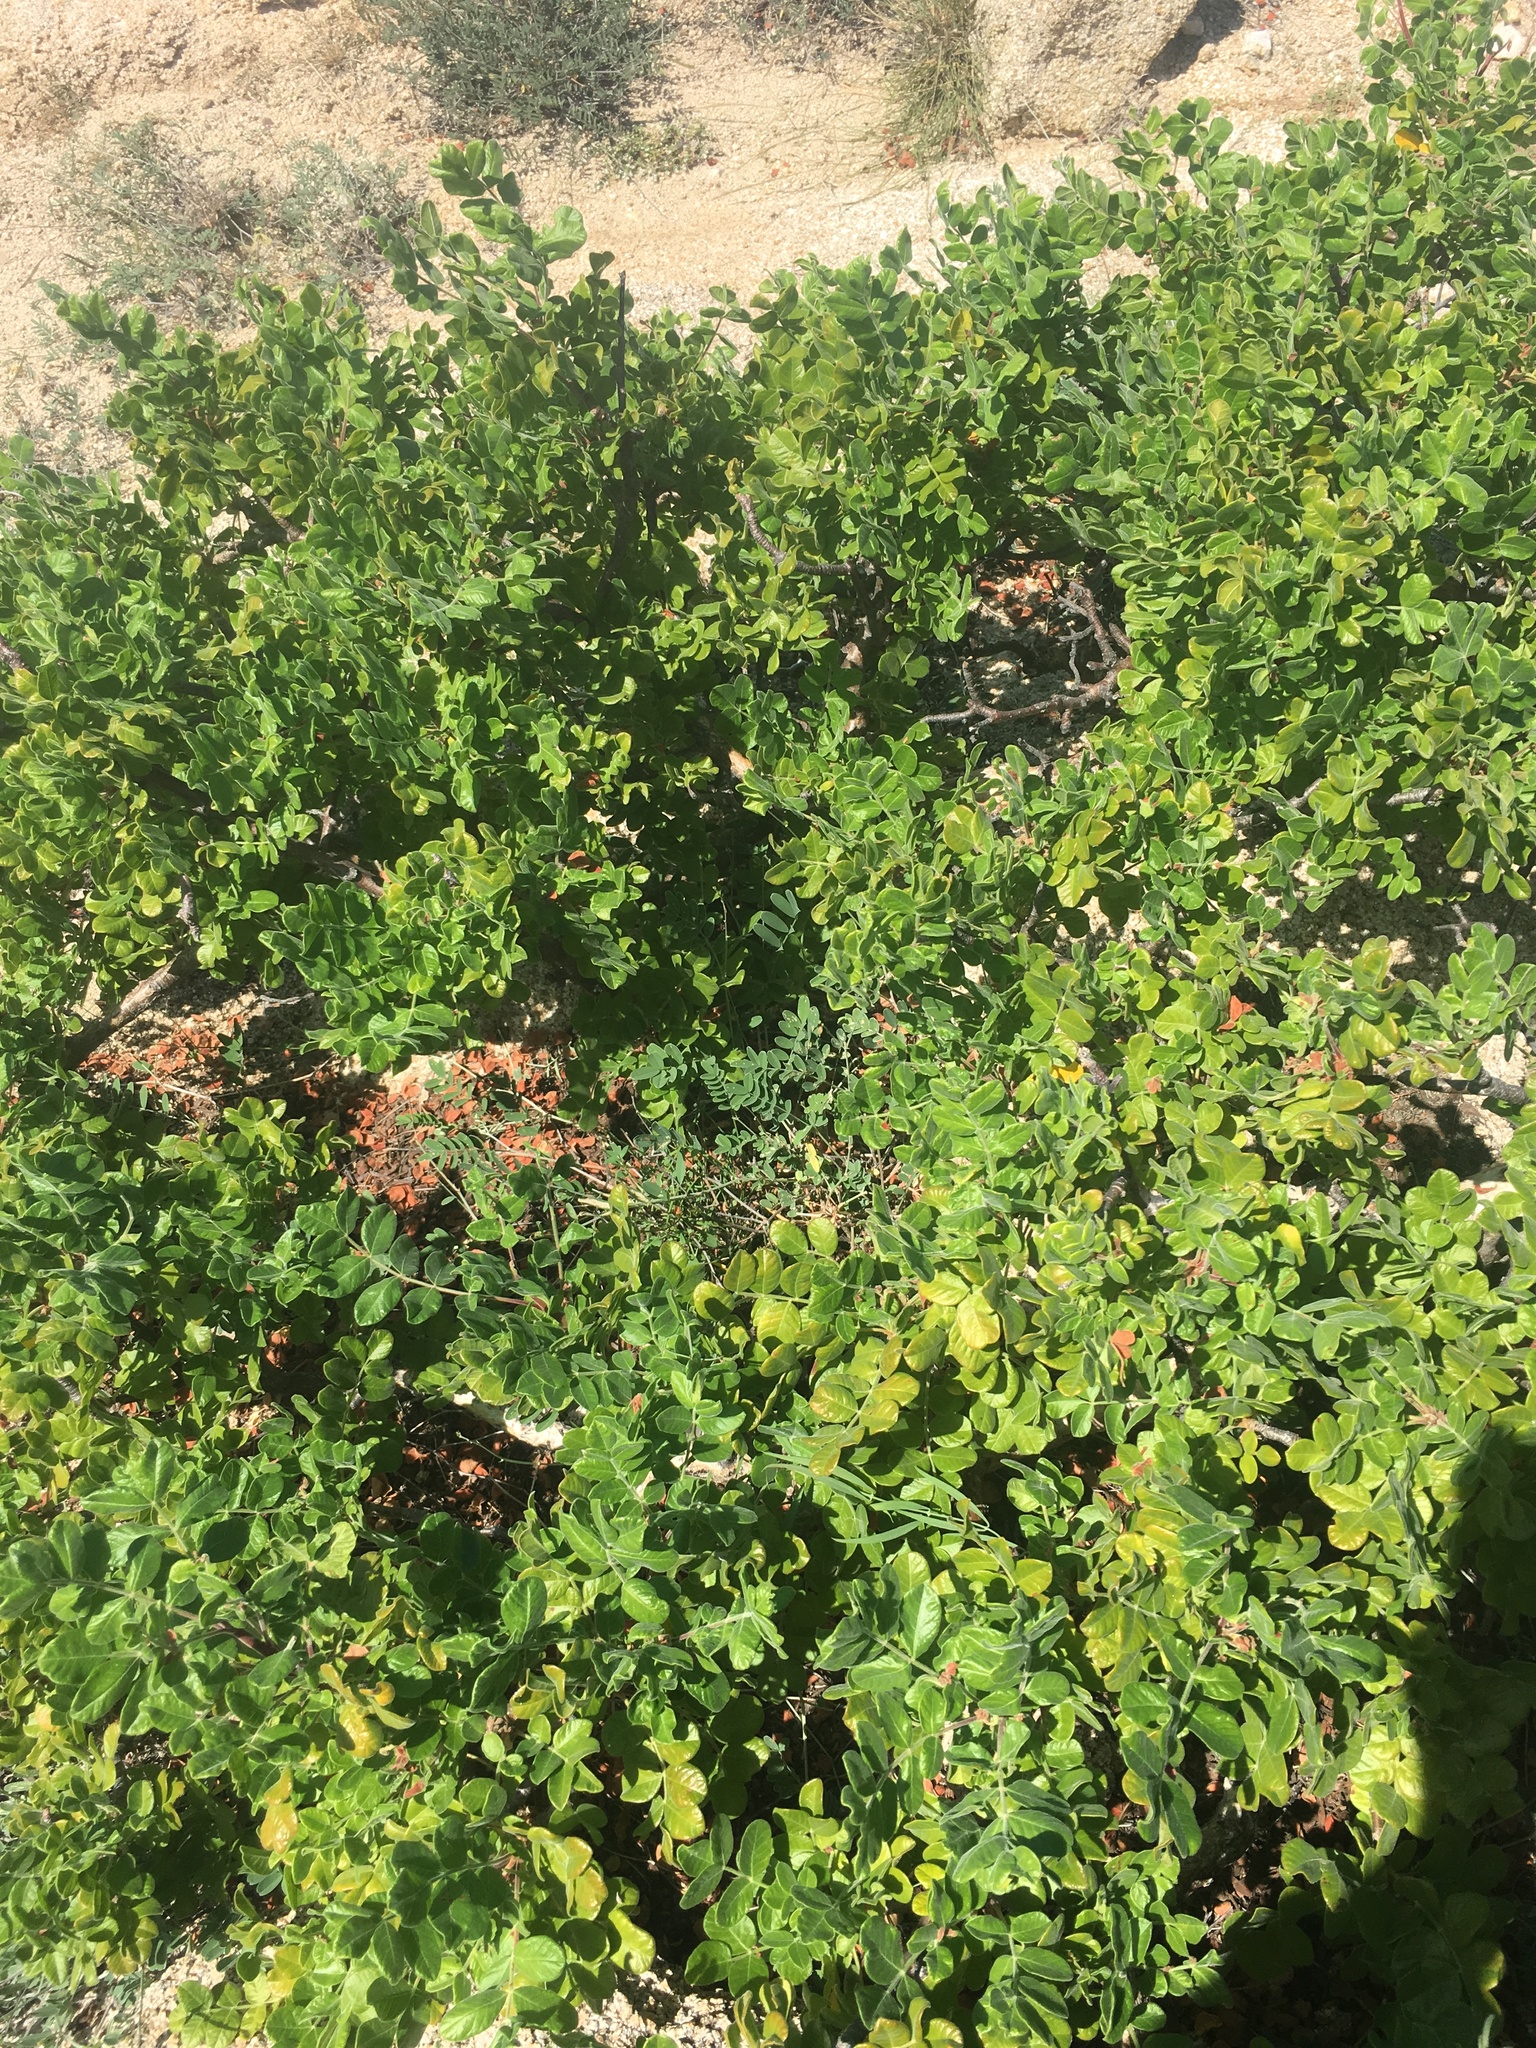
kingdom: Plantae
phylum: Tracheophyta
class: Magnoliopsida
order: Sapindales
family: Anacardiaceae
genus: Cyrtocarpa
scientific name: Cyrtocarpa edulis
